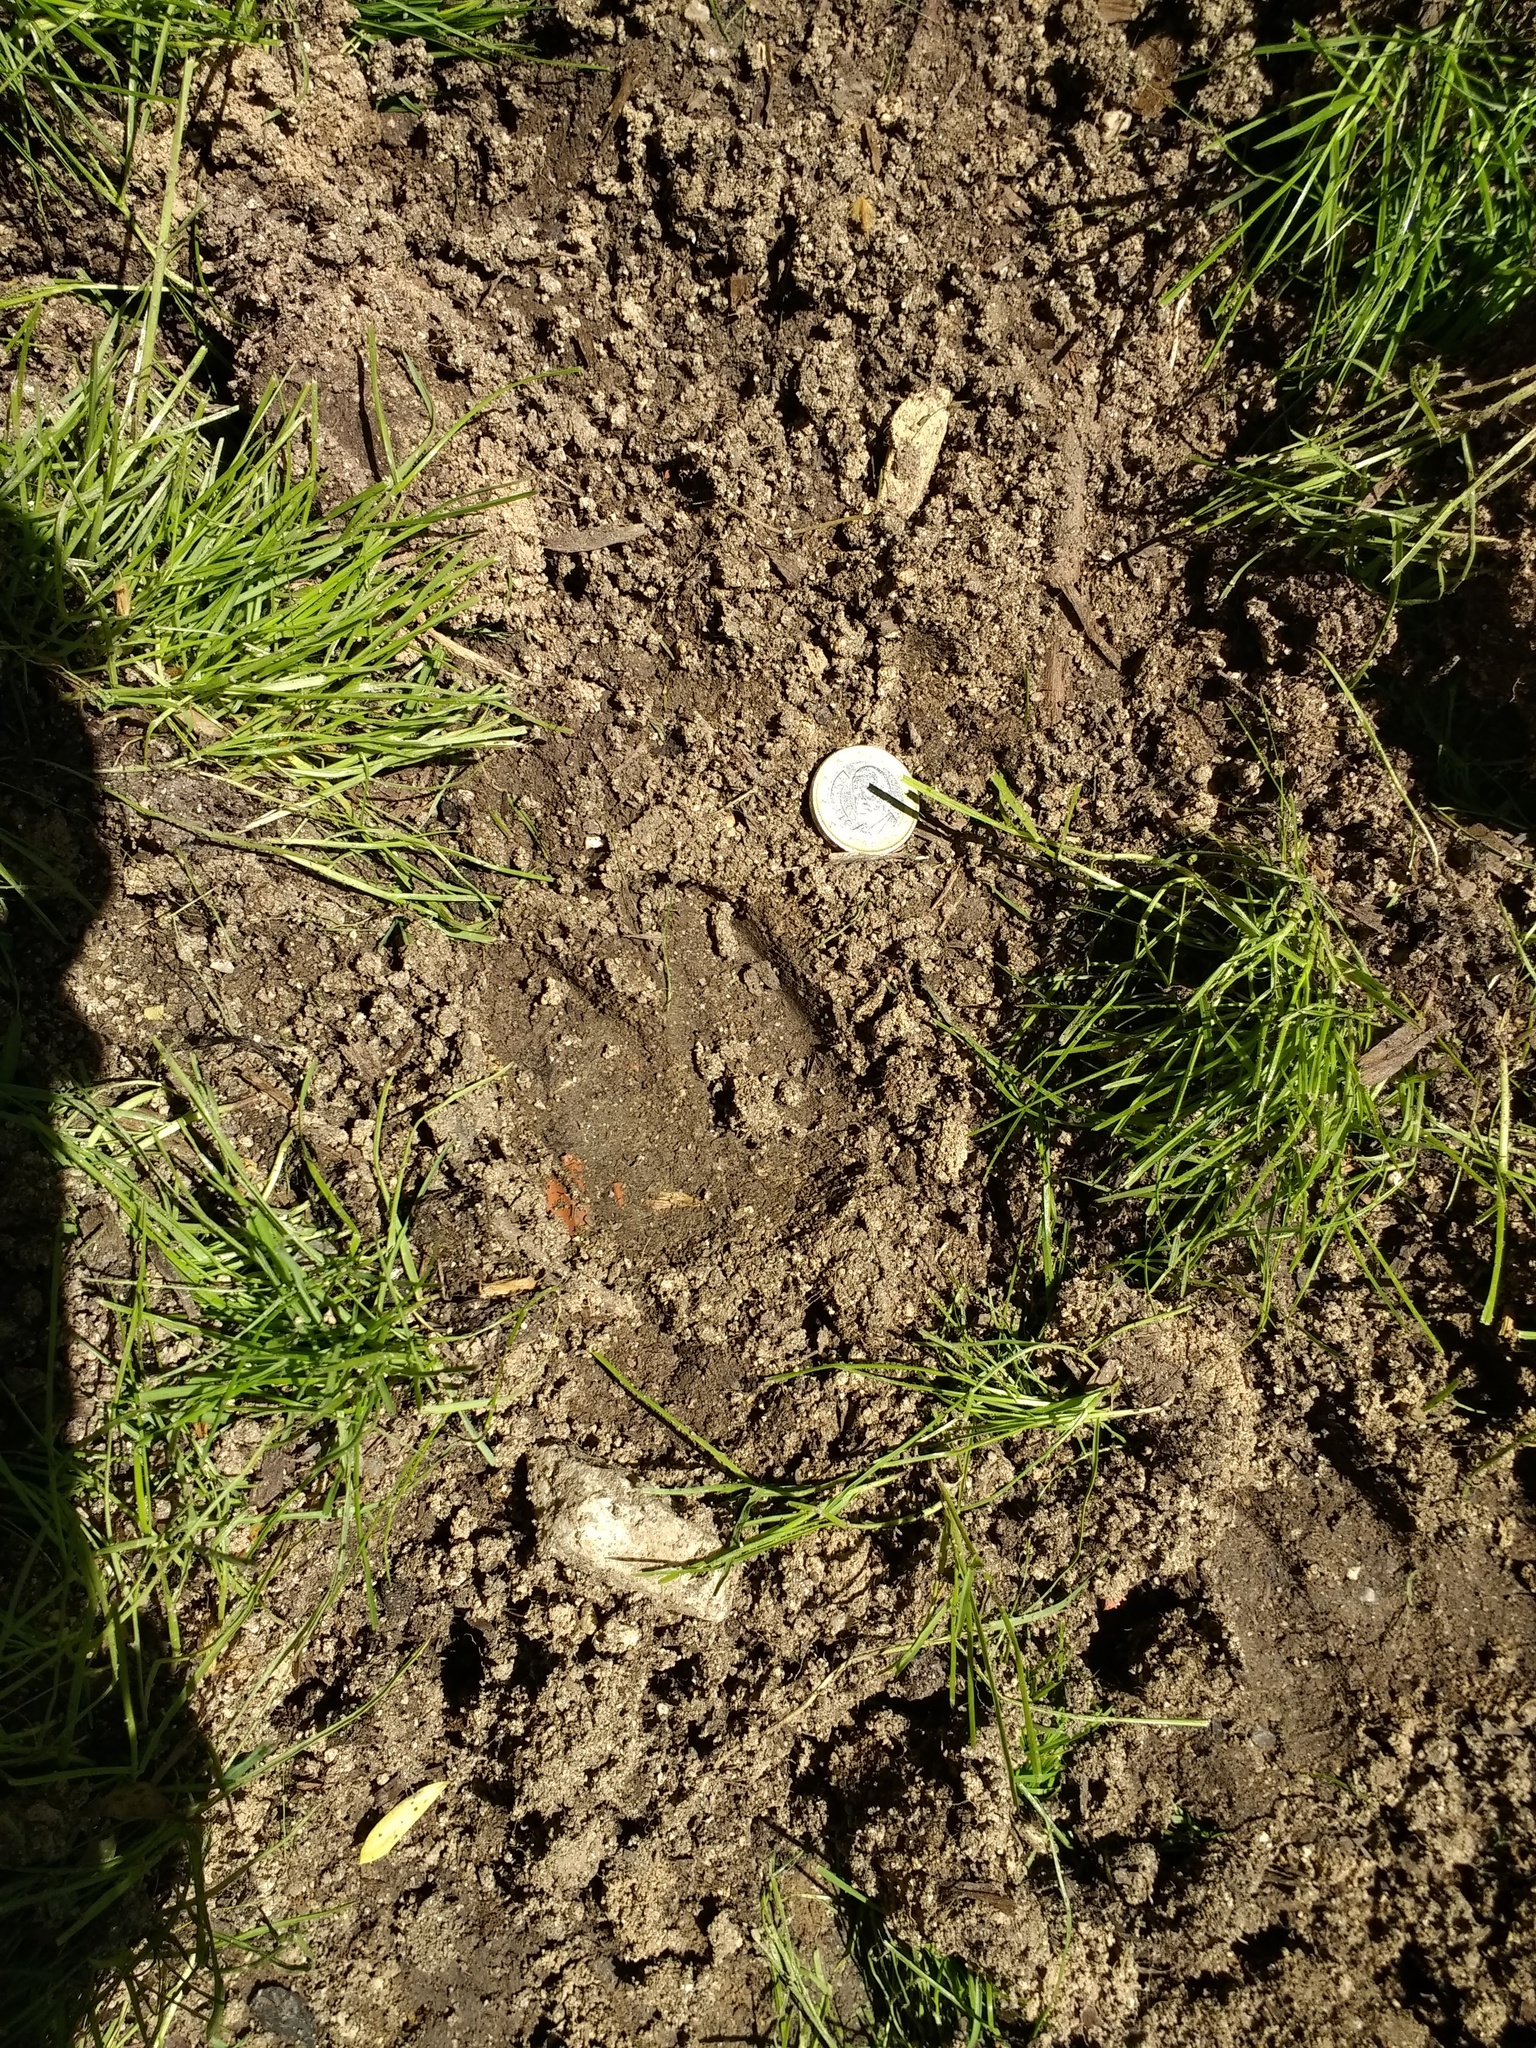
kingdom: Animalia
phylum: Chordata
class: Mammalia
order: Artiodactyla
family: Suidae
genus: Sus
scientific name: Sus scrofa
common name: Wild boar
